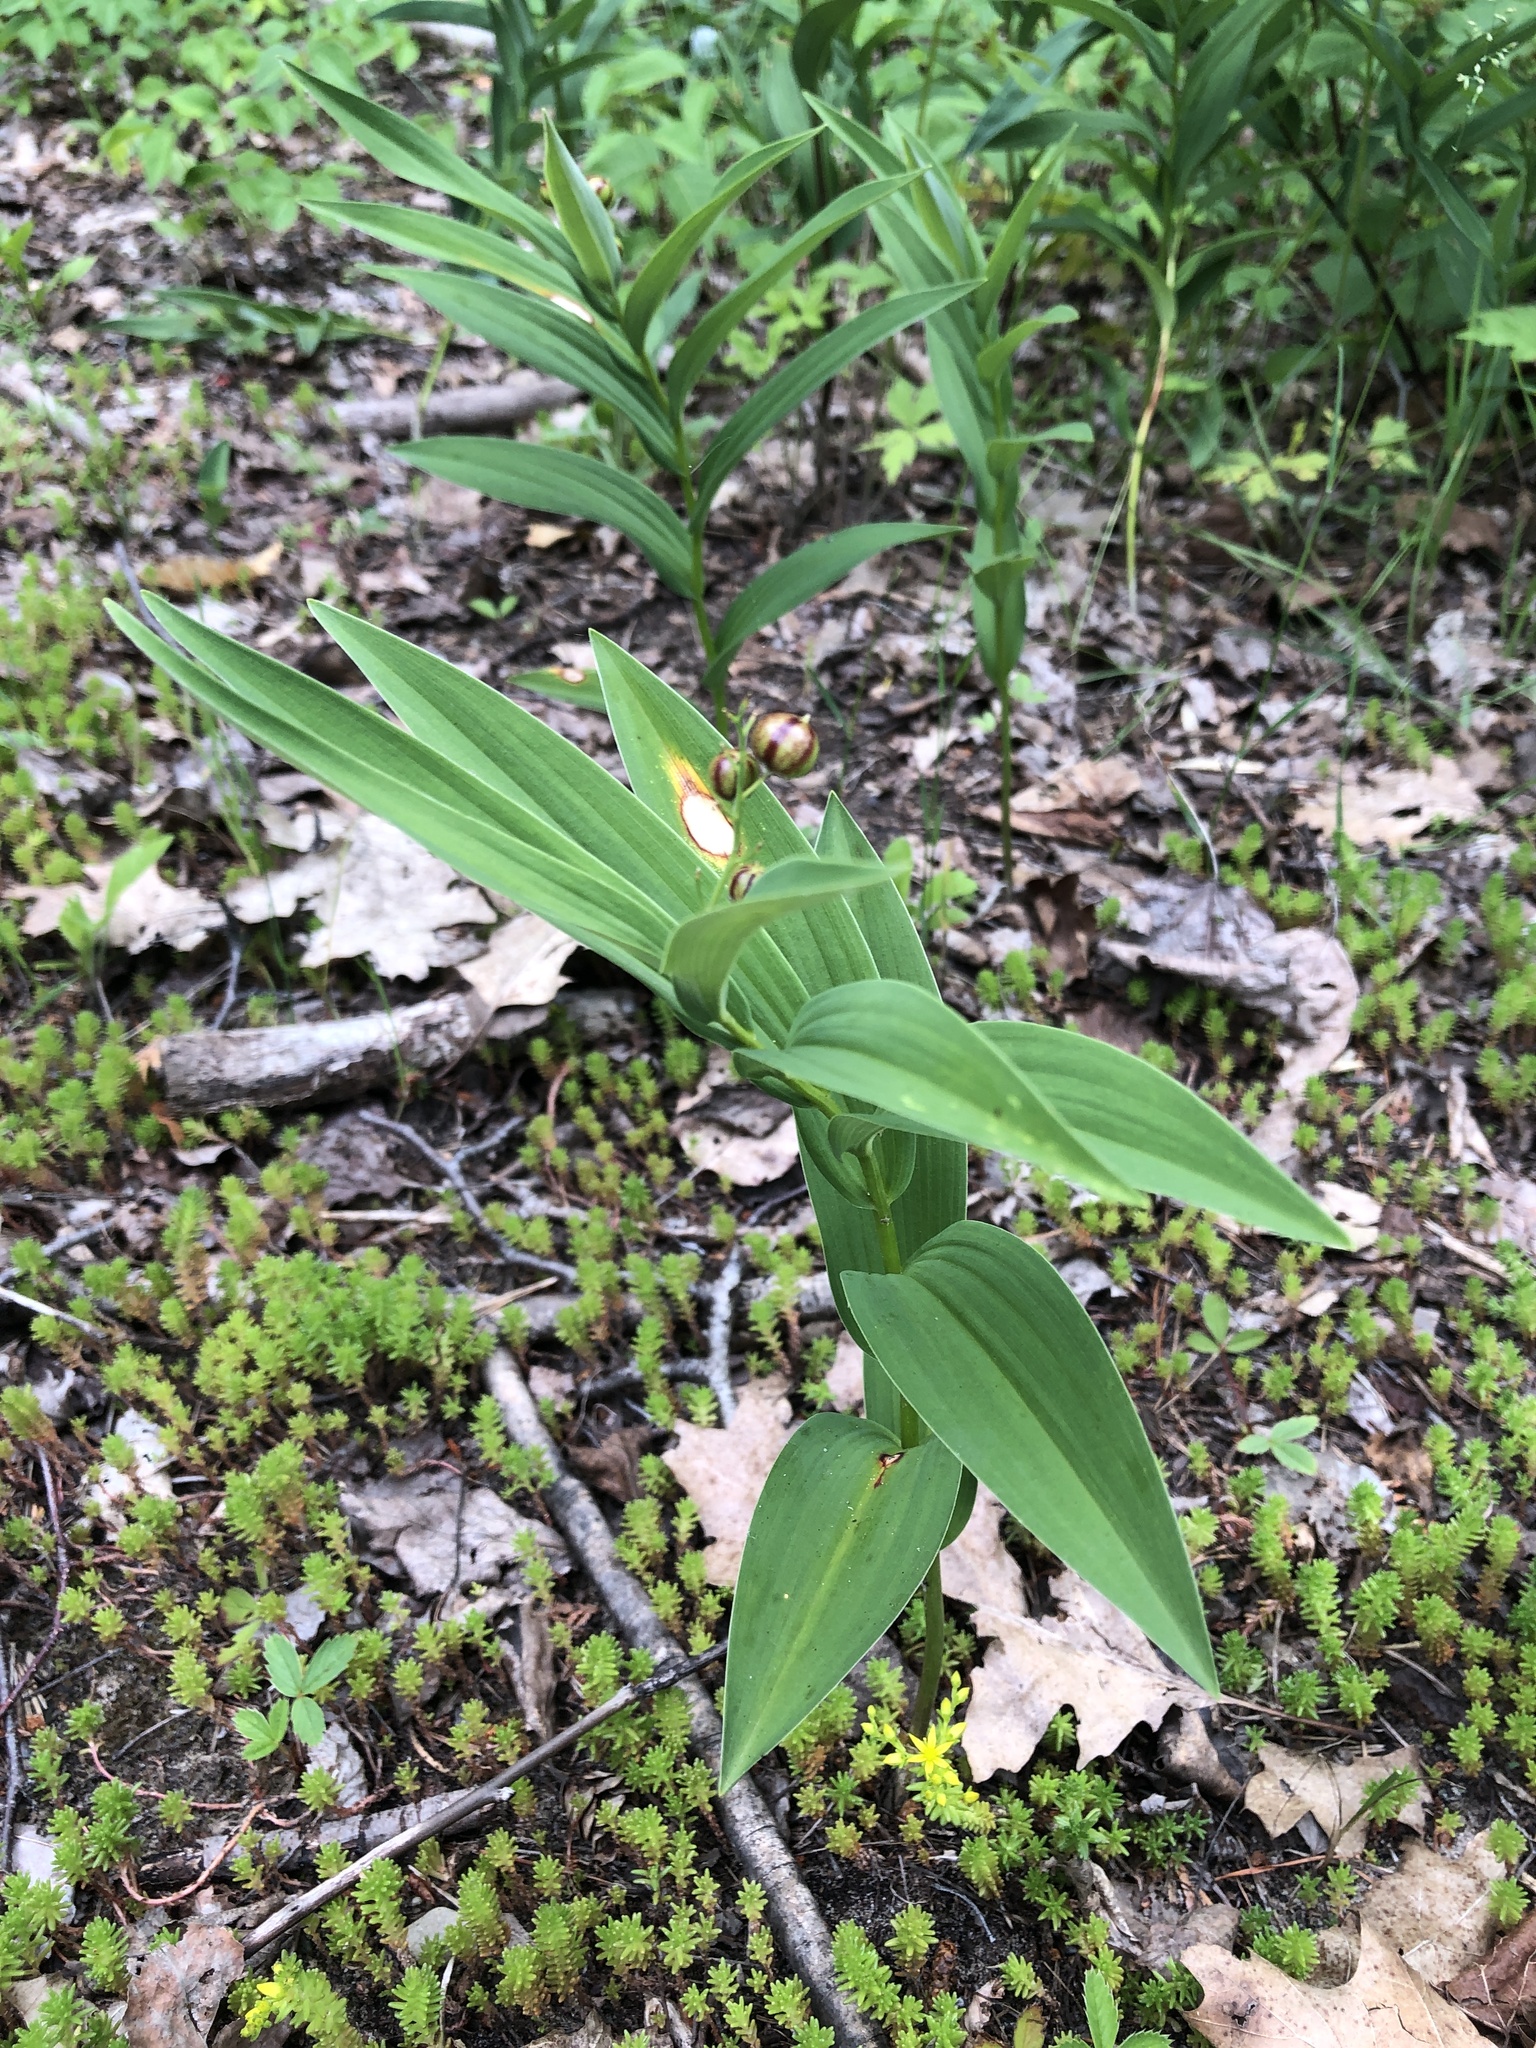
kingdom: Plantae
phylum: Tracheophyta
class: Liliopsida
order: Asparagales
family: Asparagaceae
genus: Maianthemum
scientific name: Maianthemum stellatum
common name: Little false solomon's seal
